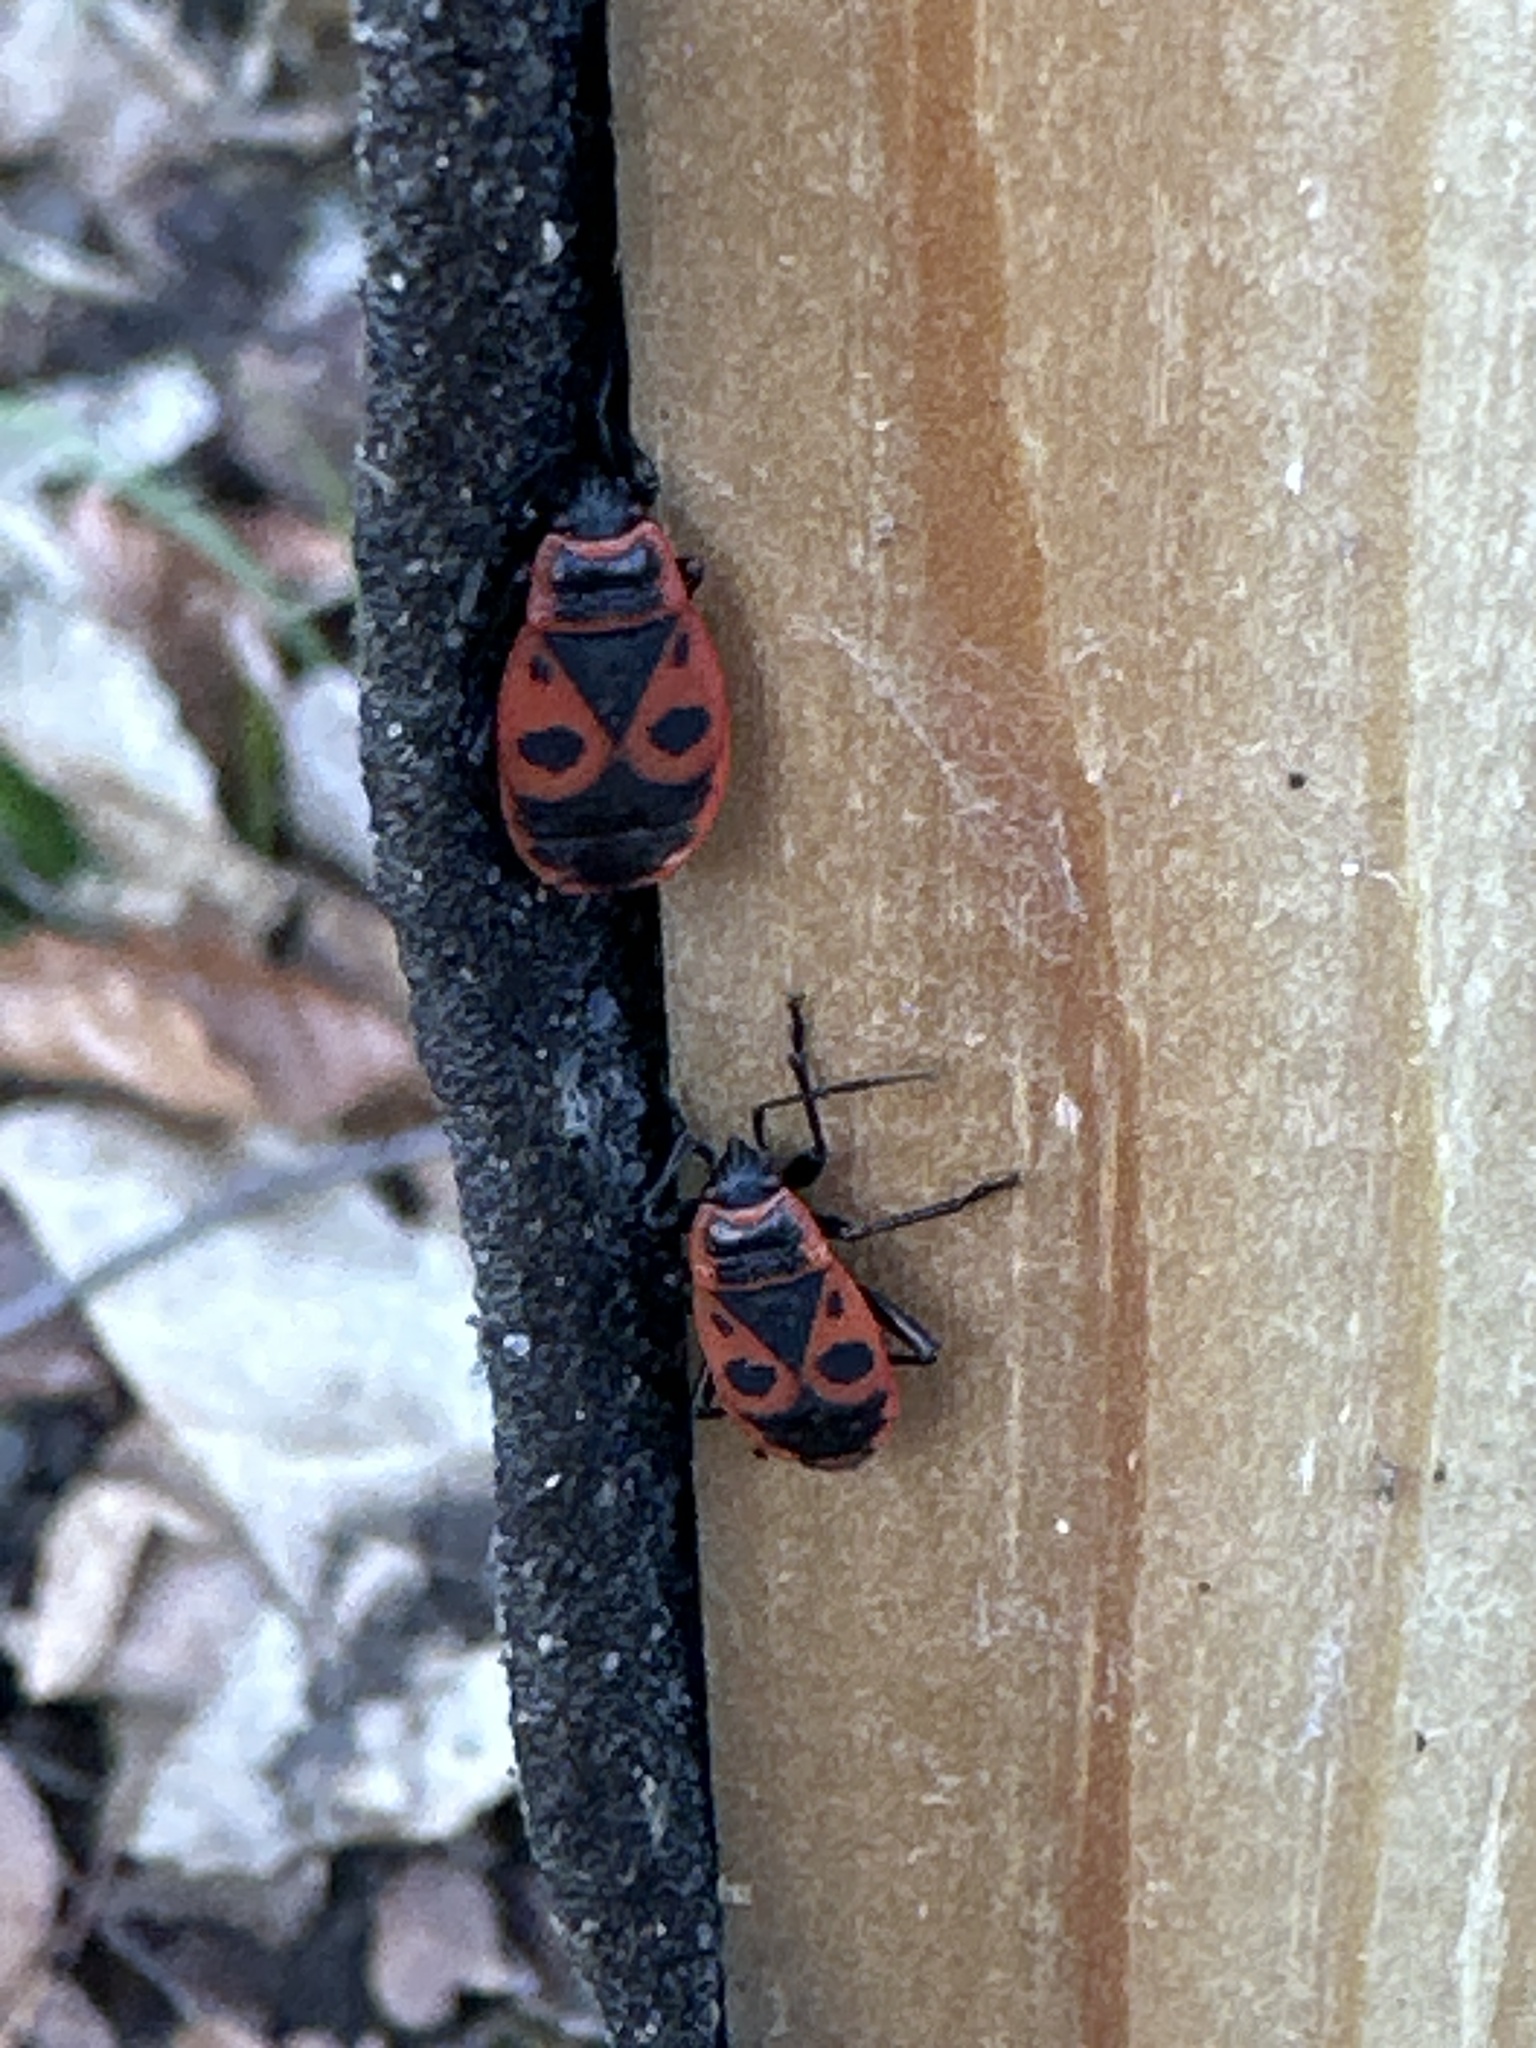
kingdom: Animalia
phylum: Arthropoda
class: Insecta
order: Hemiptera
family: Pyrrhocoridae
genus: Pyrrhocoris
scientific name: Pyrrhocoris apterus
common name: Firebug
